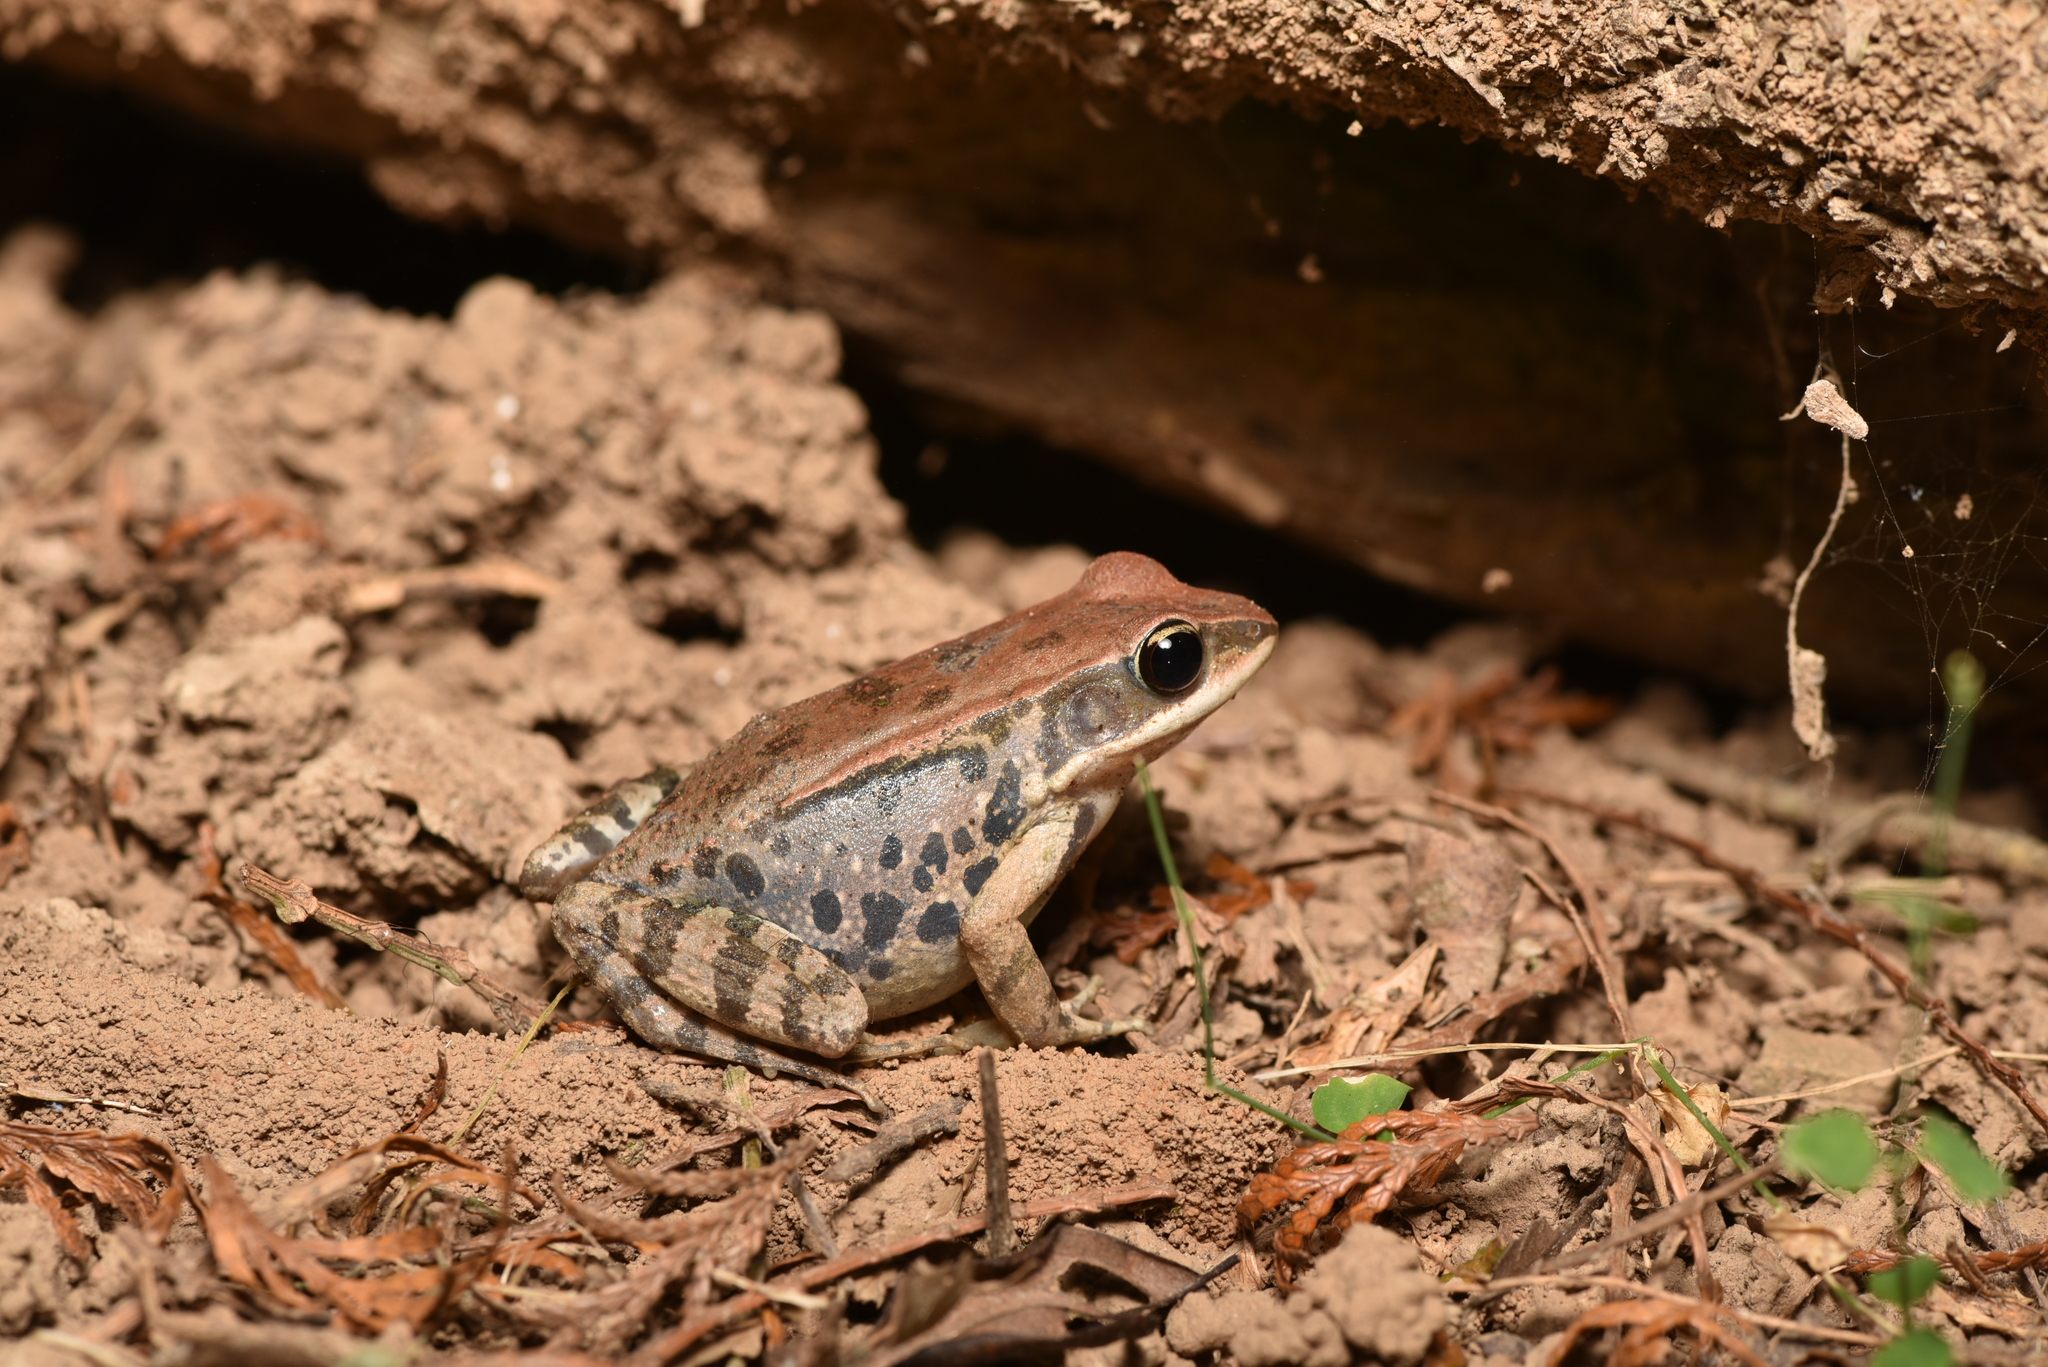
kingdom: Animalia
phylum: Chordata
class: Amphibia
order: Anura
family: Ranidae
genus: Hylarana
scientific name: Hylarana latouchii
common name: Broad-folded frog
